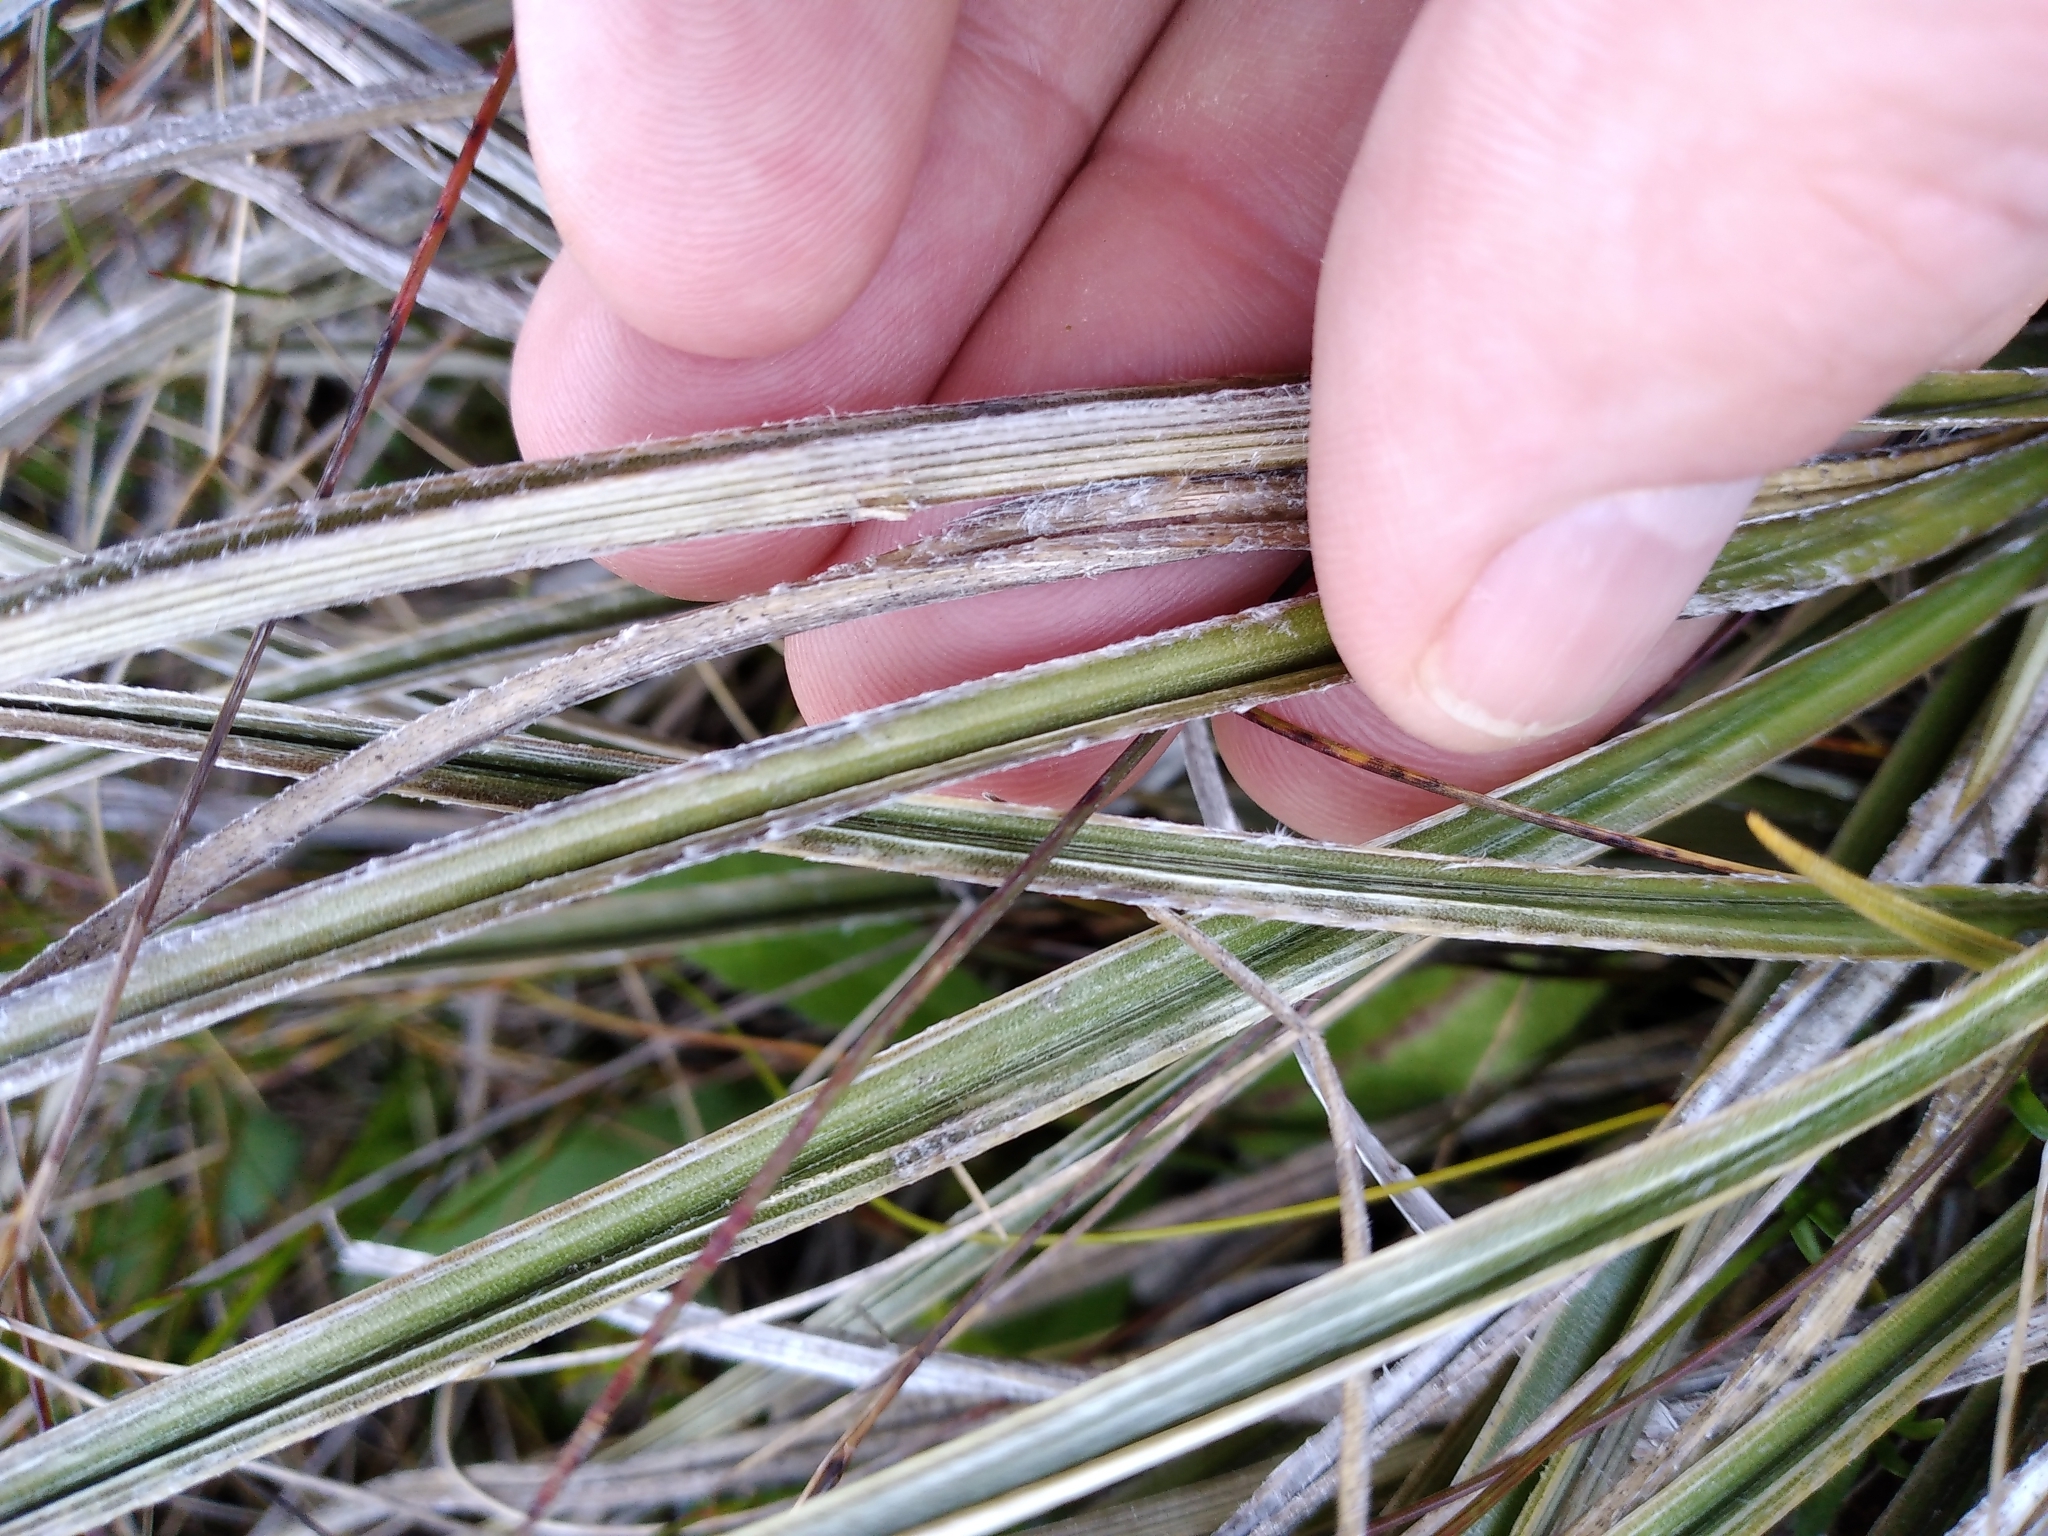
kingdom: Plantae
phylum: Tracheophyta
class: Liliopsida
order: Asparagales
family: Asteliaceae
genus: Astelia
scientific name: Astelia graminea
